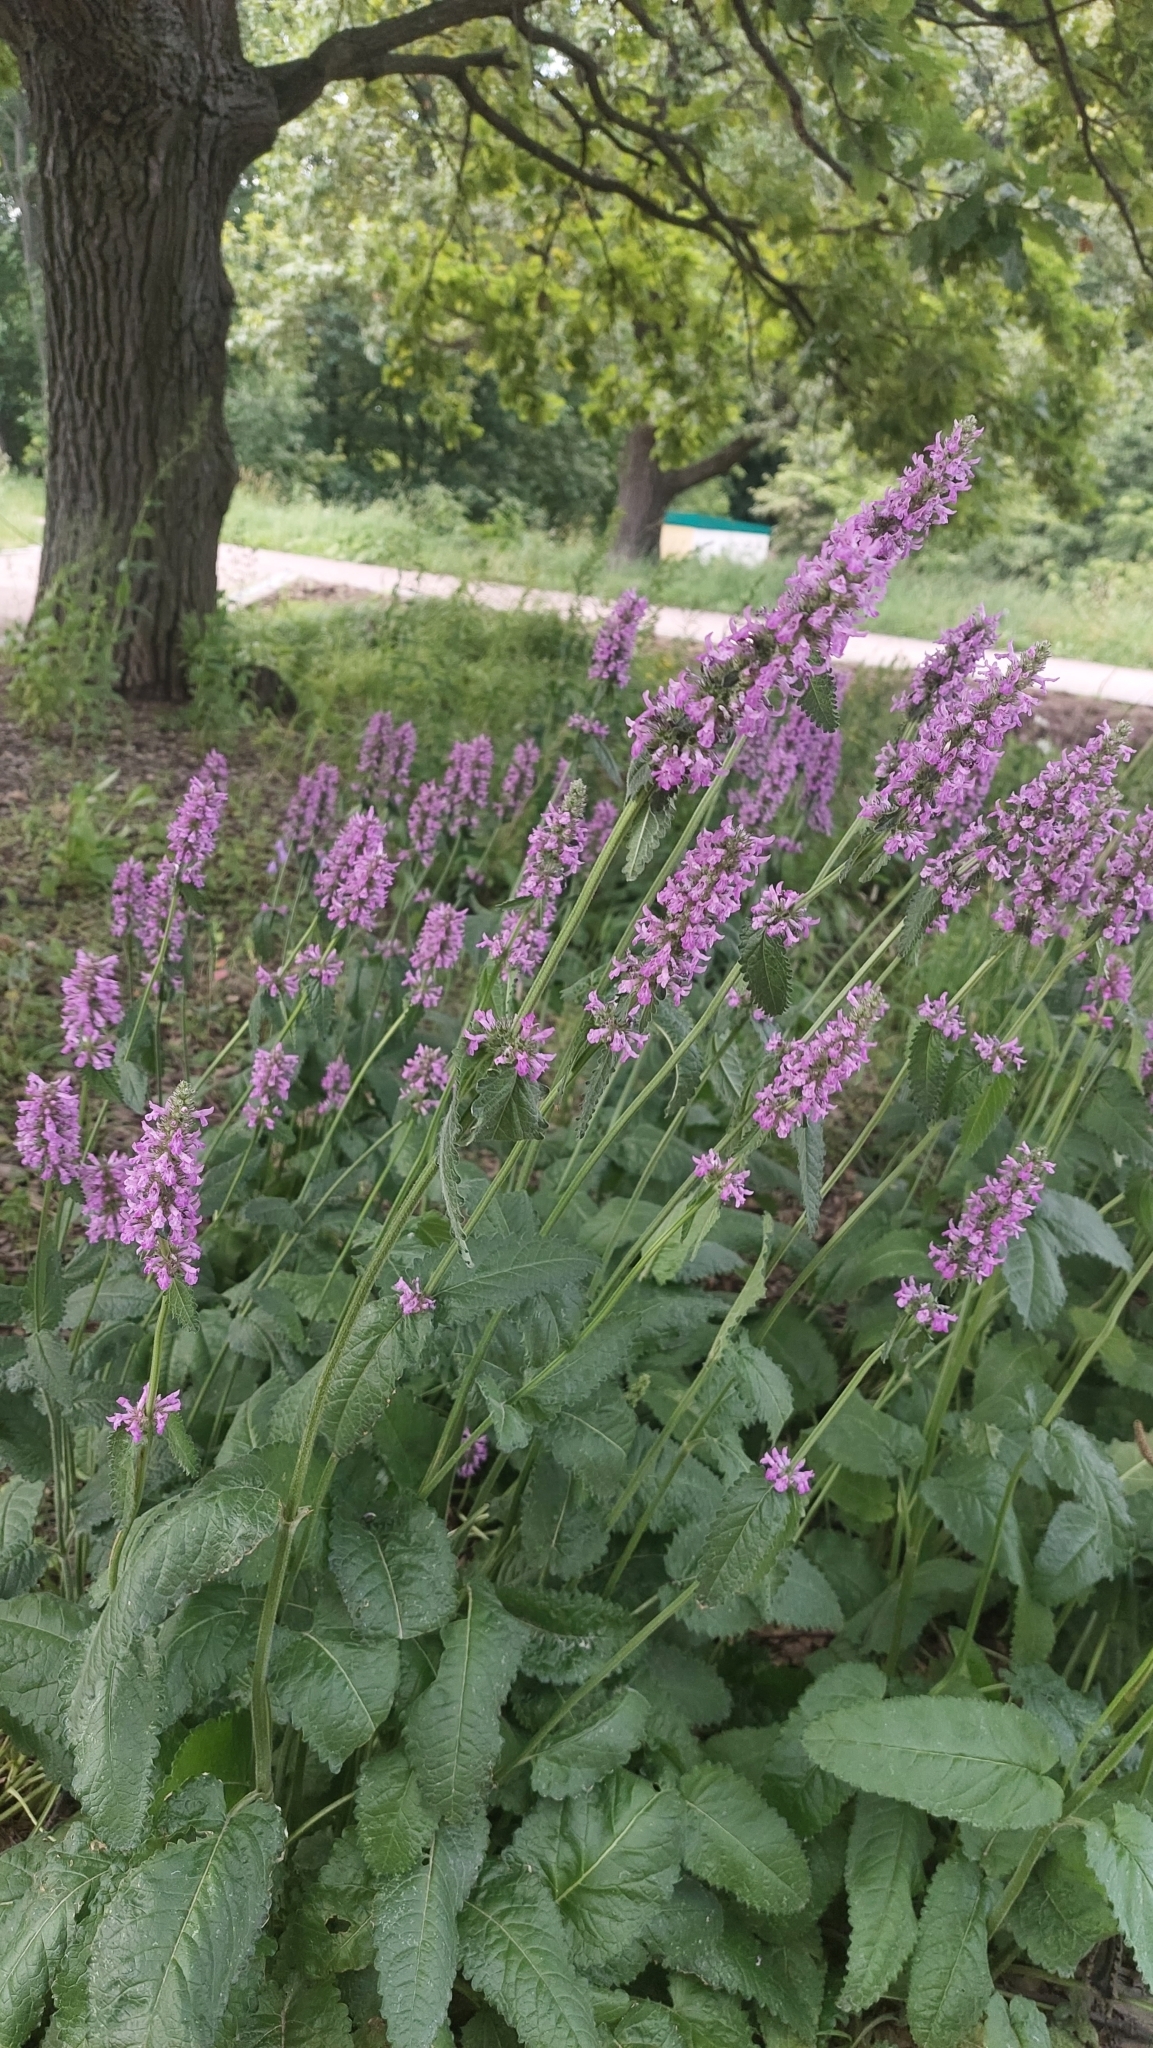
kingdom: Plantae
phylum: Tracheophyta
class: Magnoliopsida
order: Lamiales
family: Lamiaceae
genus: Betonica
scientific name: Betonica officinalis
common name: Bishop's-wort
